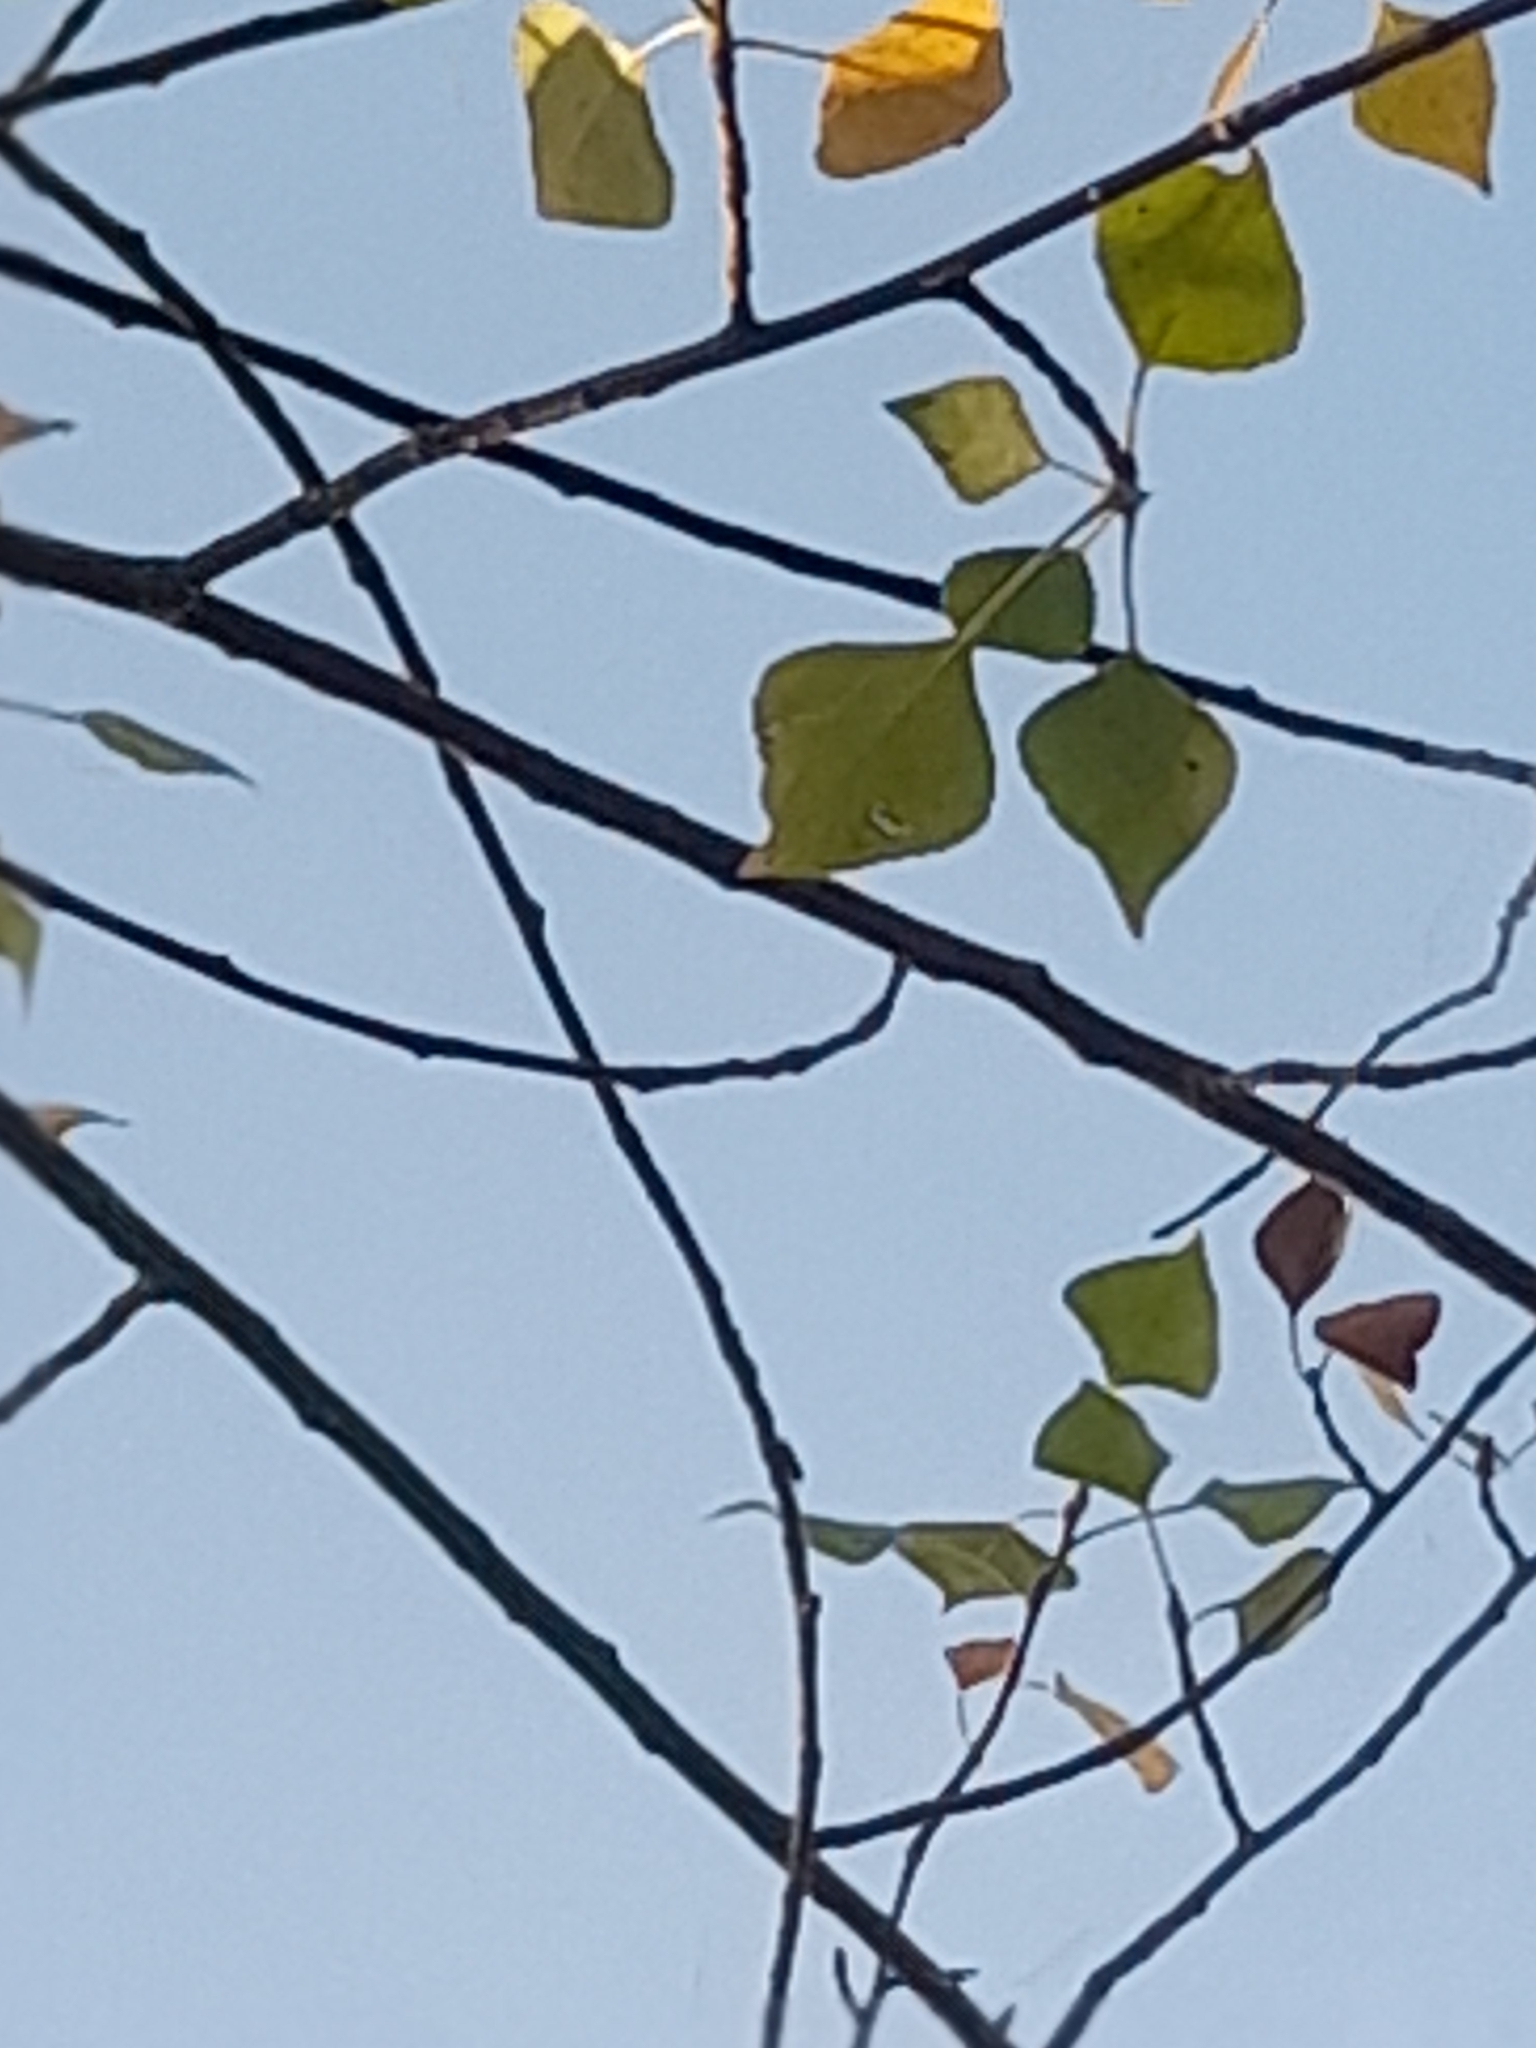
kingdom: Plantae
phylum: Tracheophyta
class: Magnoliopsida
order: Malpighiales
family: Salicaceae
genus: Populus
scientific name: Populus nigra
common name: Black poplar
